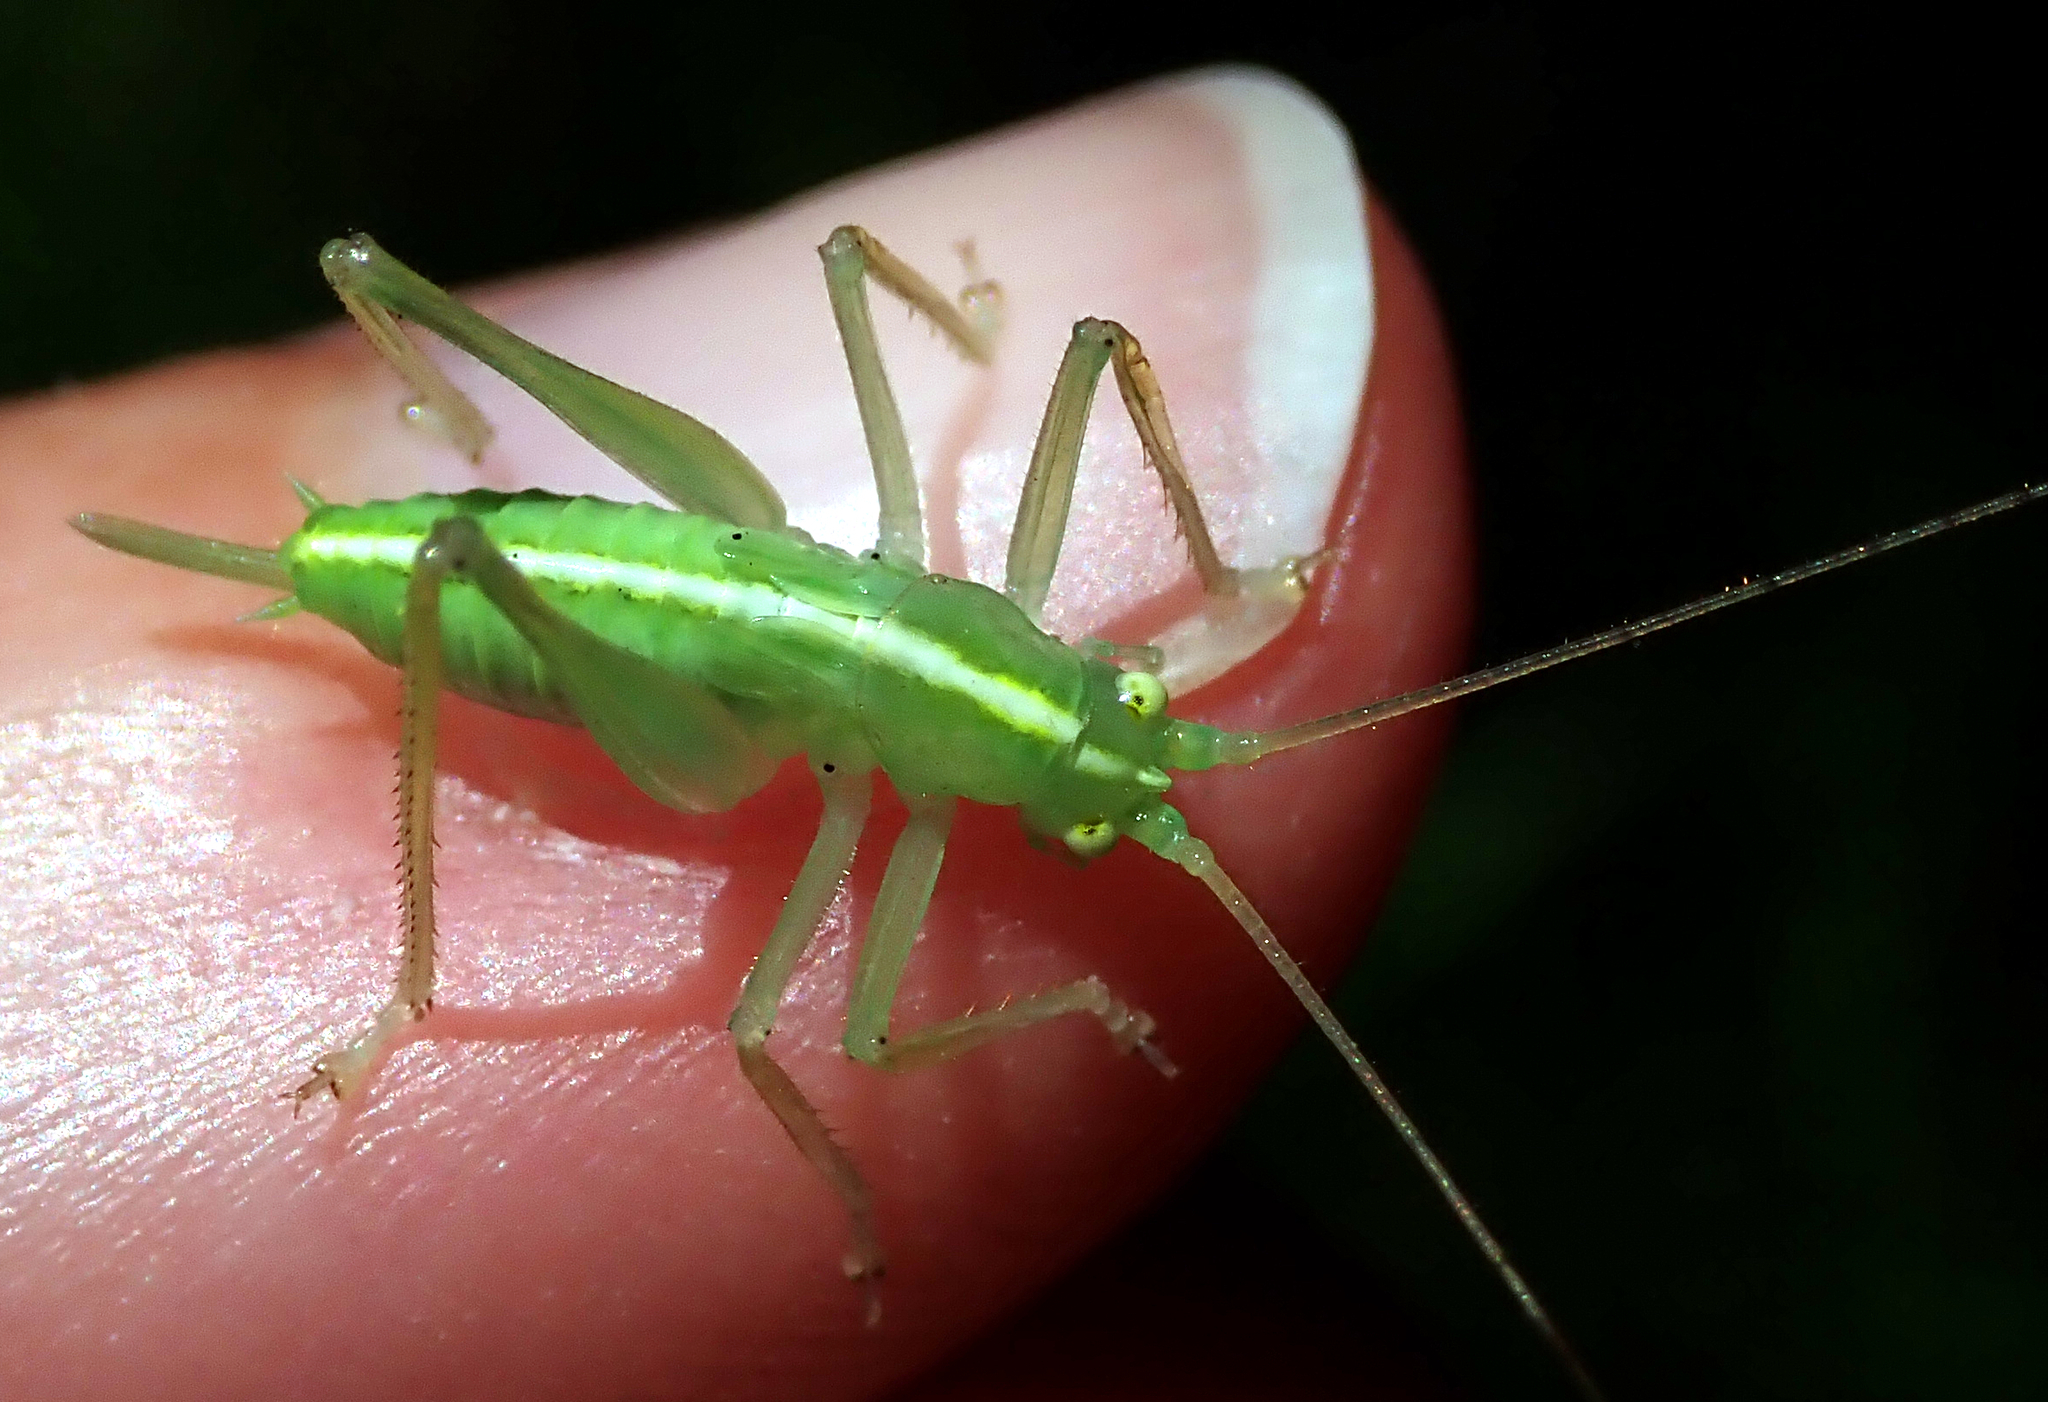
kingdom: Animalia
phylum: Arthropoda
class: Insecta
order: Orthoptera
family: Tettigoniidae
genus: Meconema
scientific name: Meconema thalassinum
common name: Oak bush-cricket
